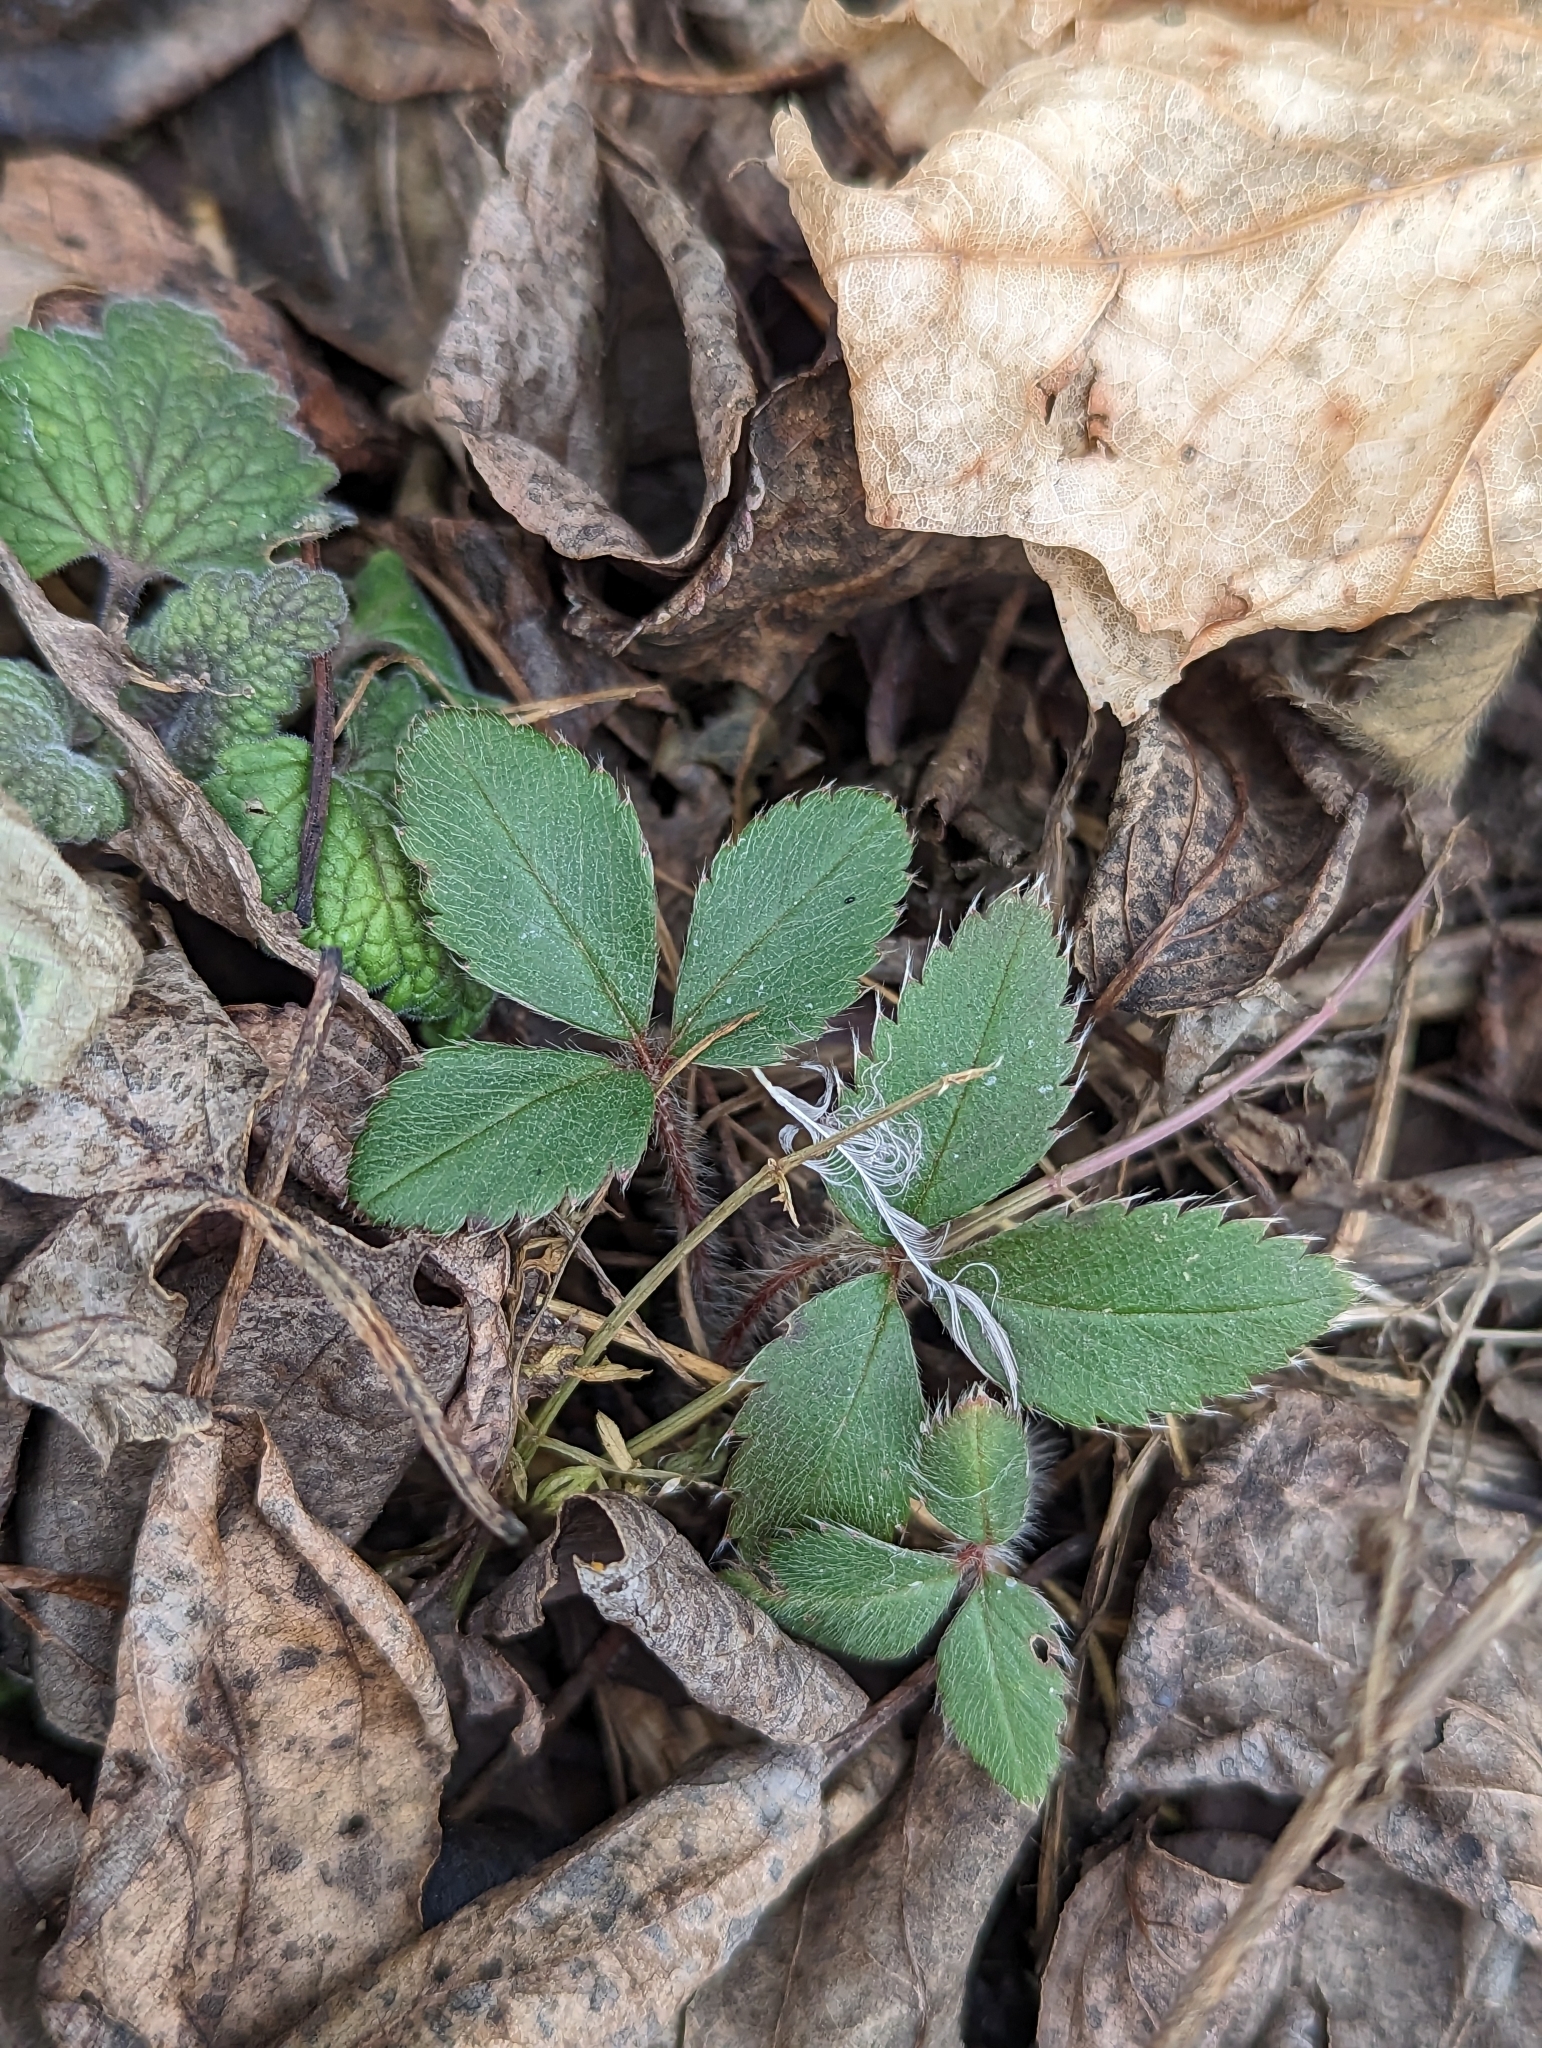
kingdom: Plantae
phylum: Tracheophyta
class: Magnoliopsida
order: Rosales
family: Rosaceae
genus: Fragaria
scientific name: Fragaria virginiana
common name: Thickleaved wild strawberry
